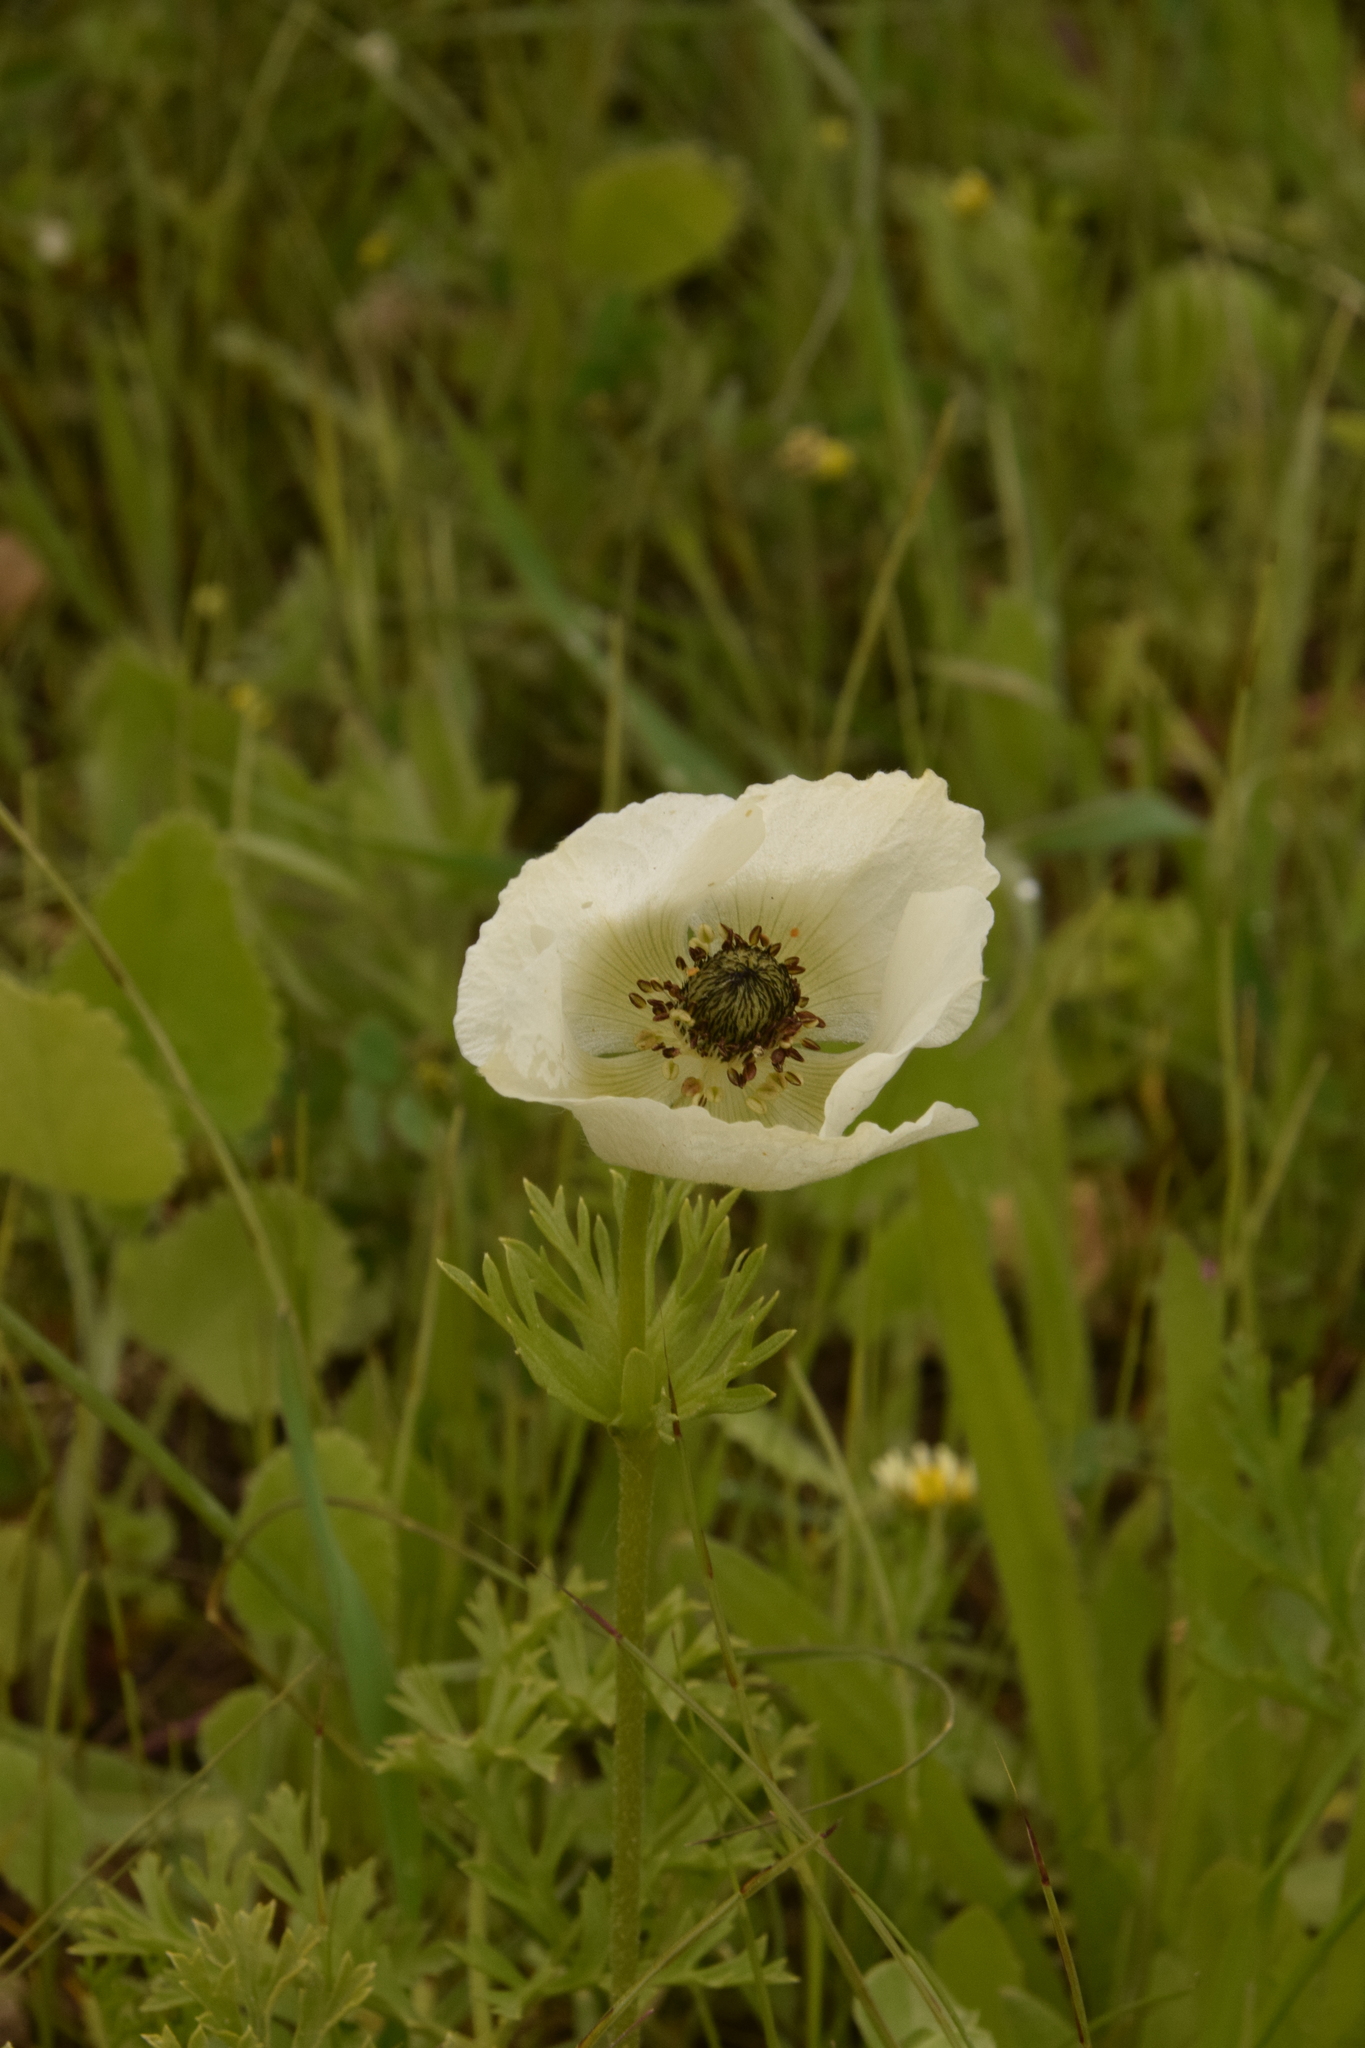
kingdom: Plantae
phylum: Tracheophyta
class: Magnoliopsida
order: Ranunculales
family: Ranunculaceae
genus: Anemone
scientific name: Anemone coronaria
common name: Poppy anemone
